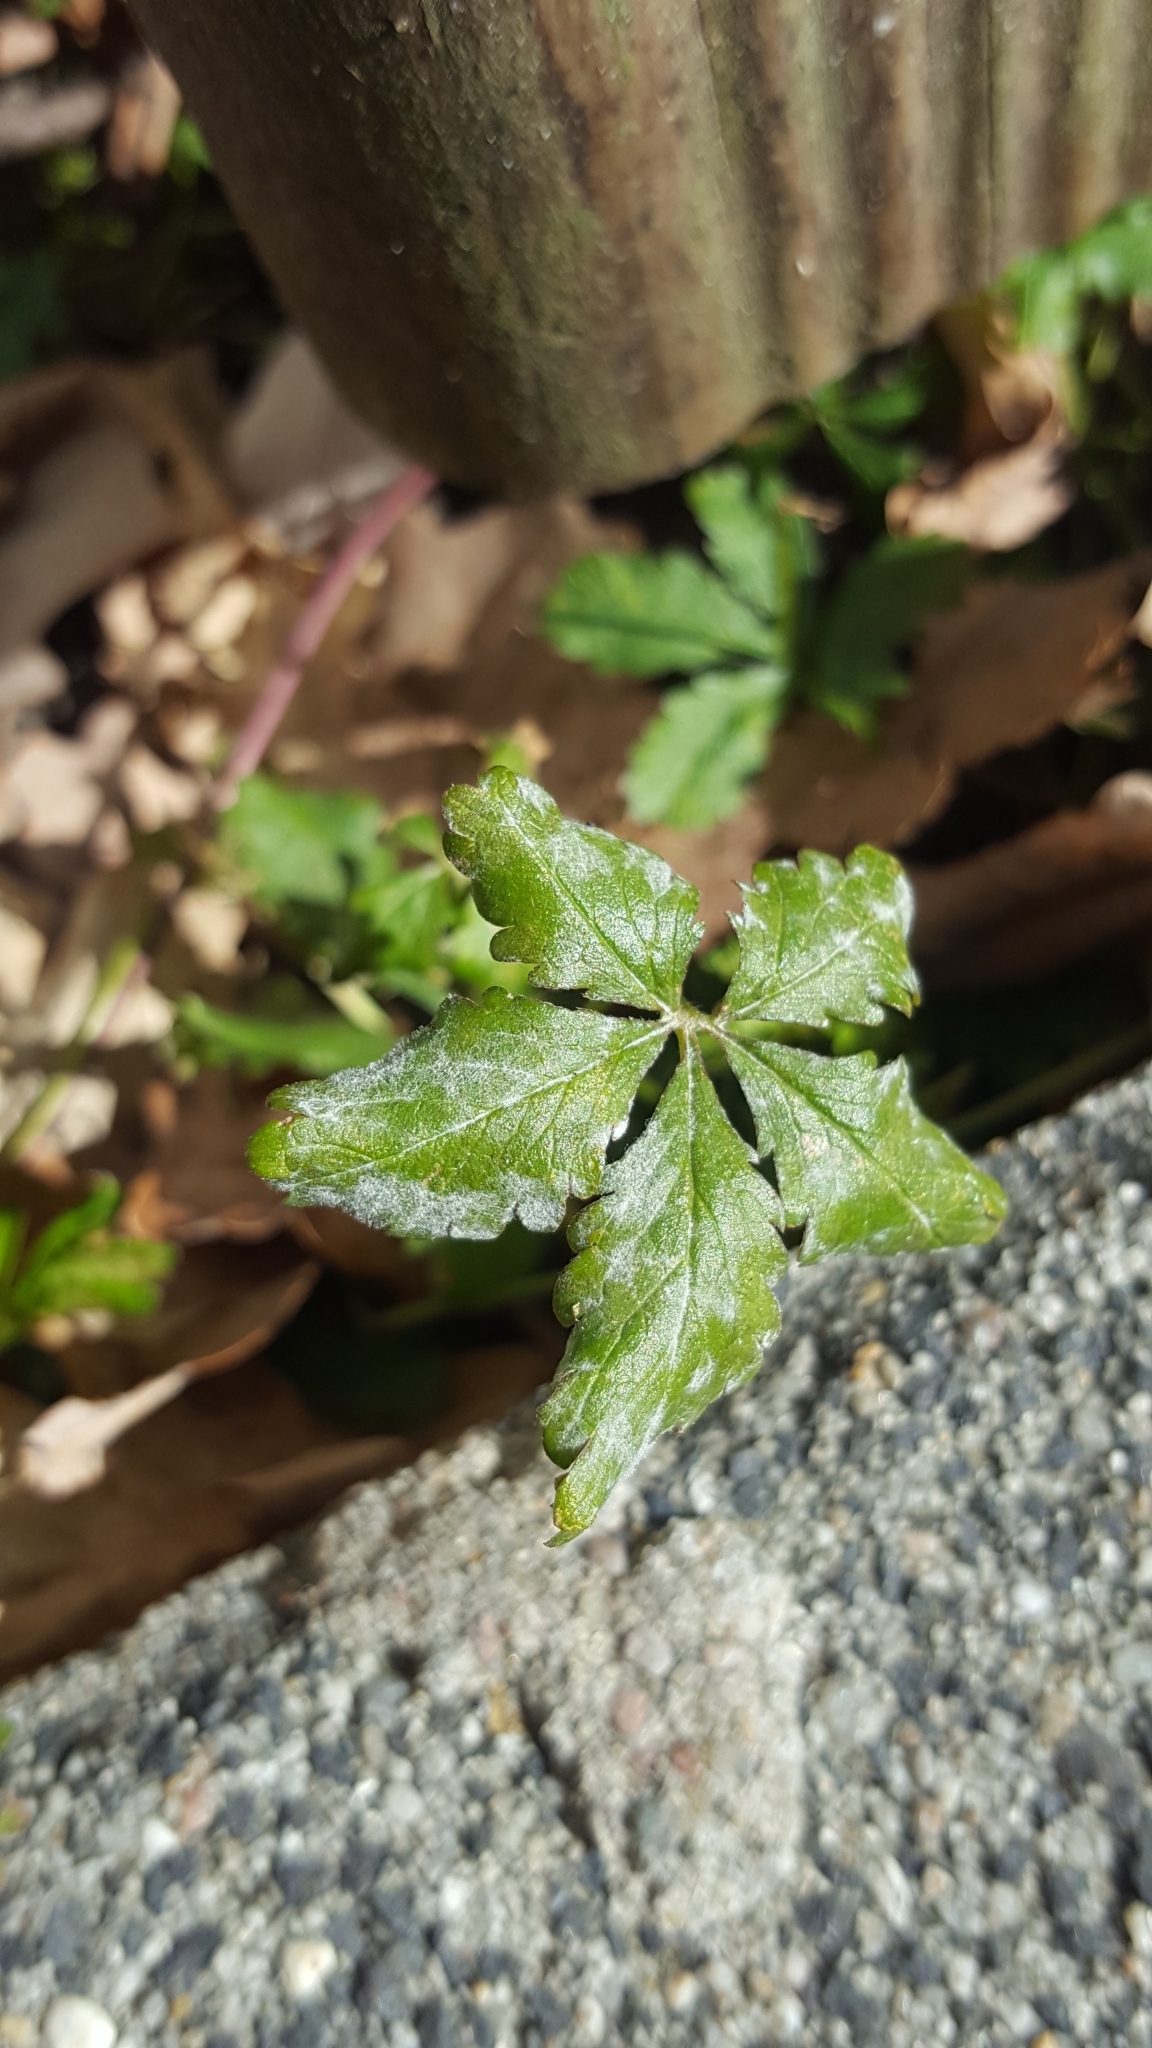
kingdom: Fungi
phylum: Ascomycota
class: Leotiomycetes
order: Helotiales
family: Erysiphaceae
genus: Podosphaera
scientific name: Podosphaera aphanis
